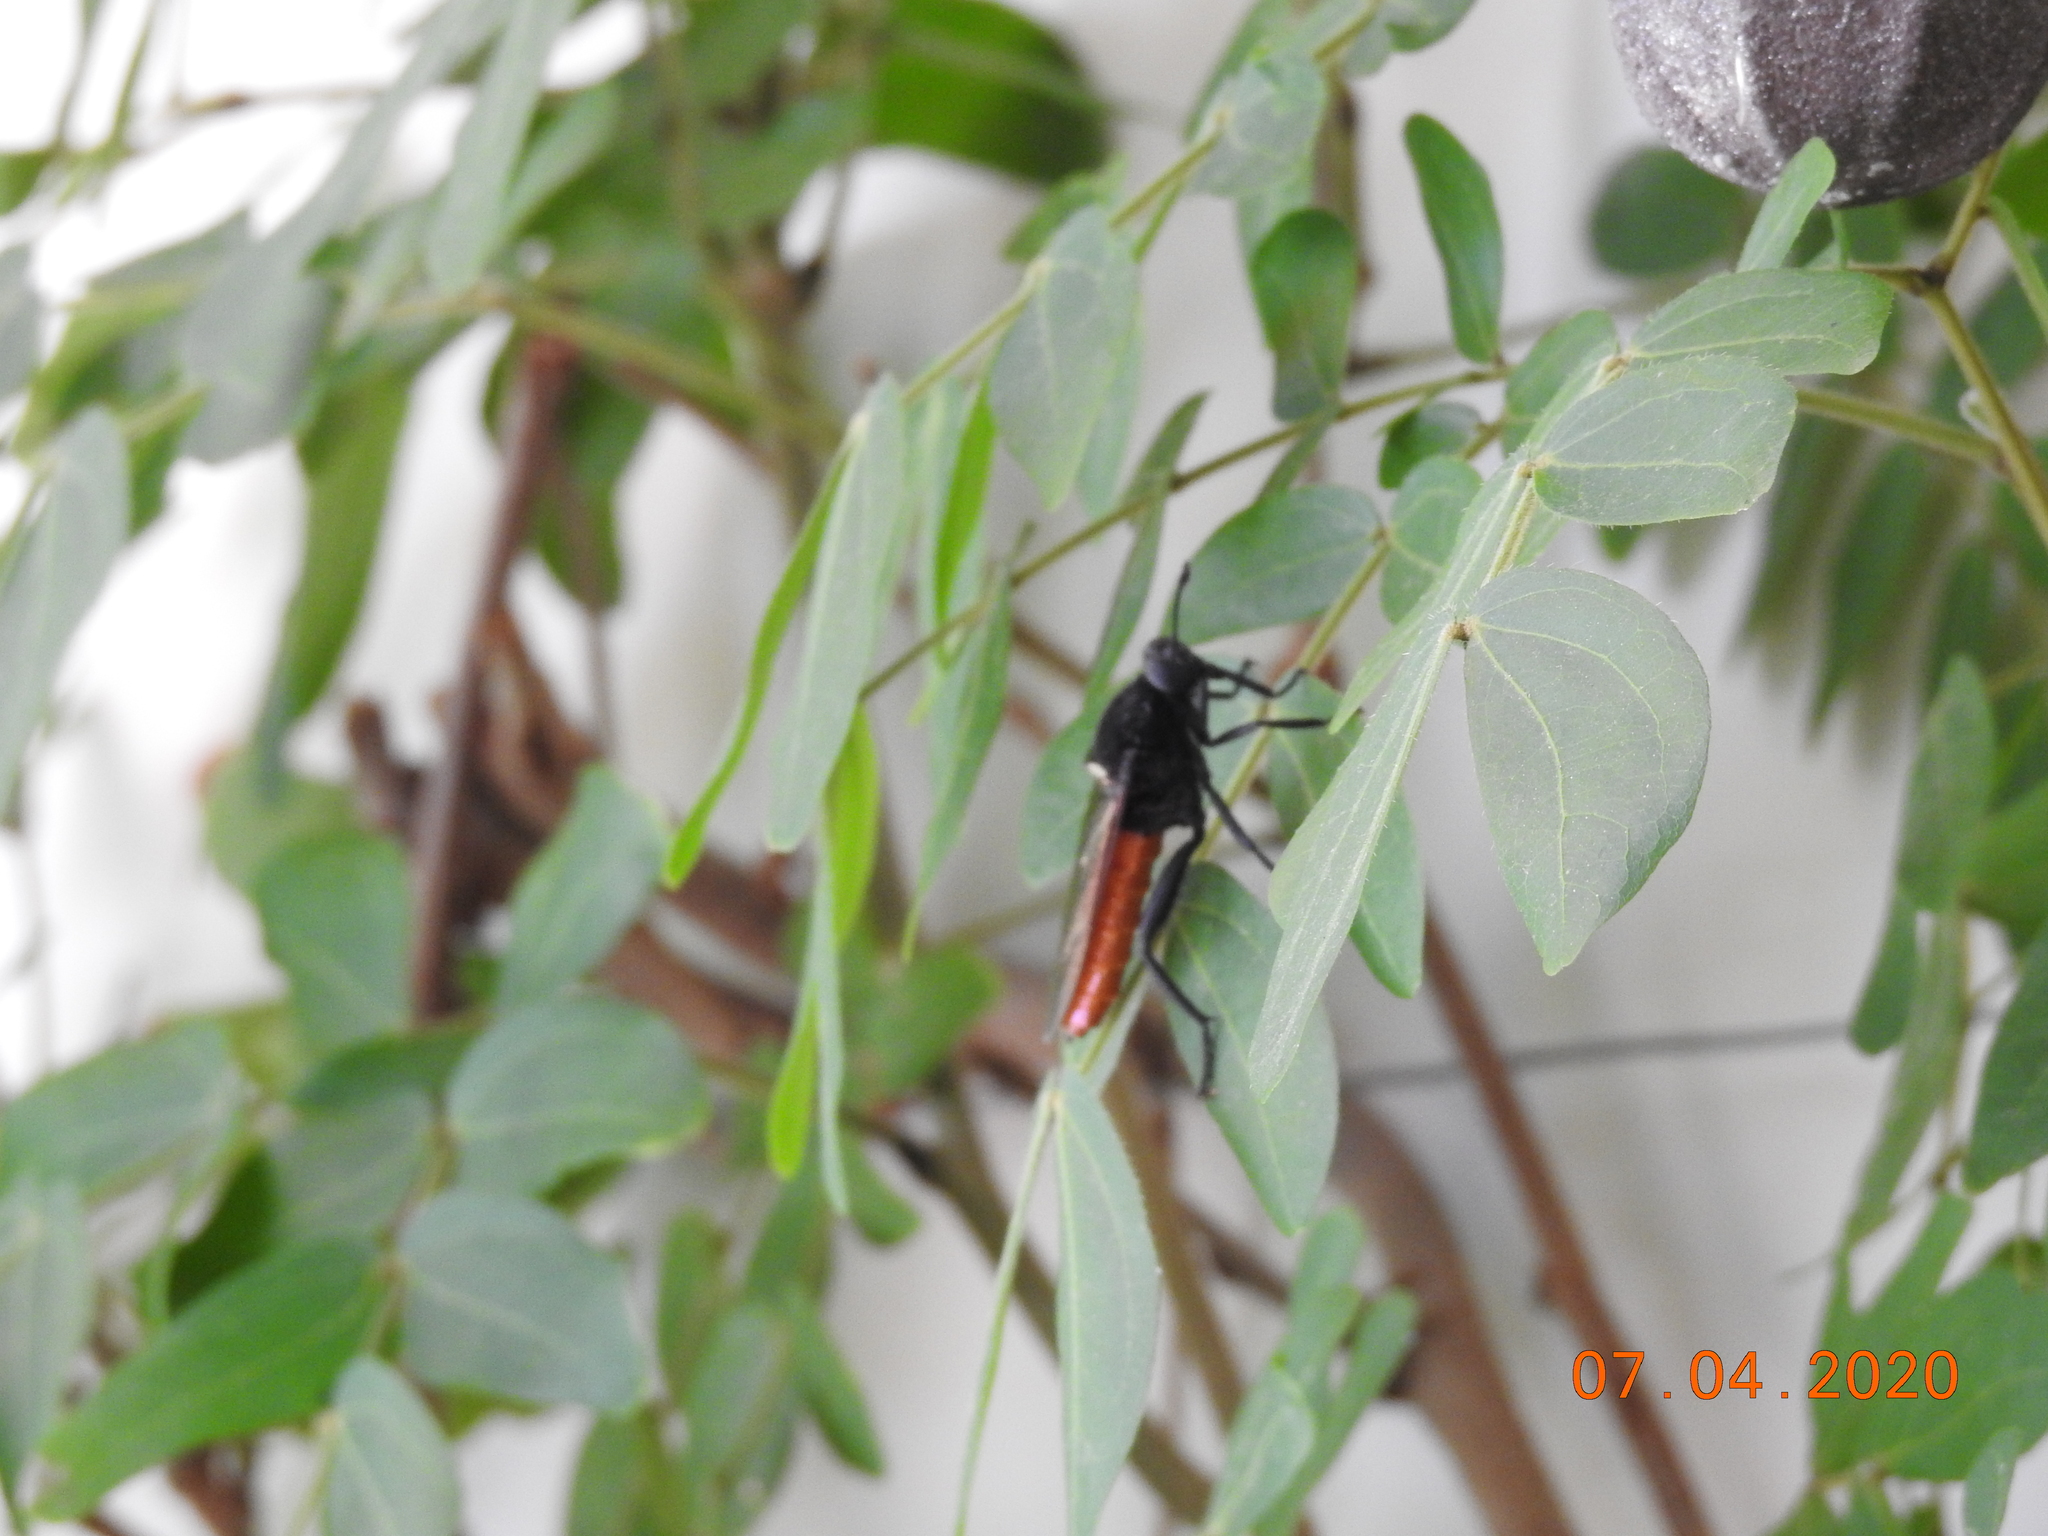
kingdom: Animalia
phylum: Arthropoda
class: Insecta
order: Diptera
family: Mydidae
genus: Mydas
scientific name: Mydas ventralis
